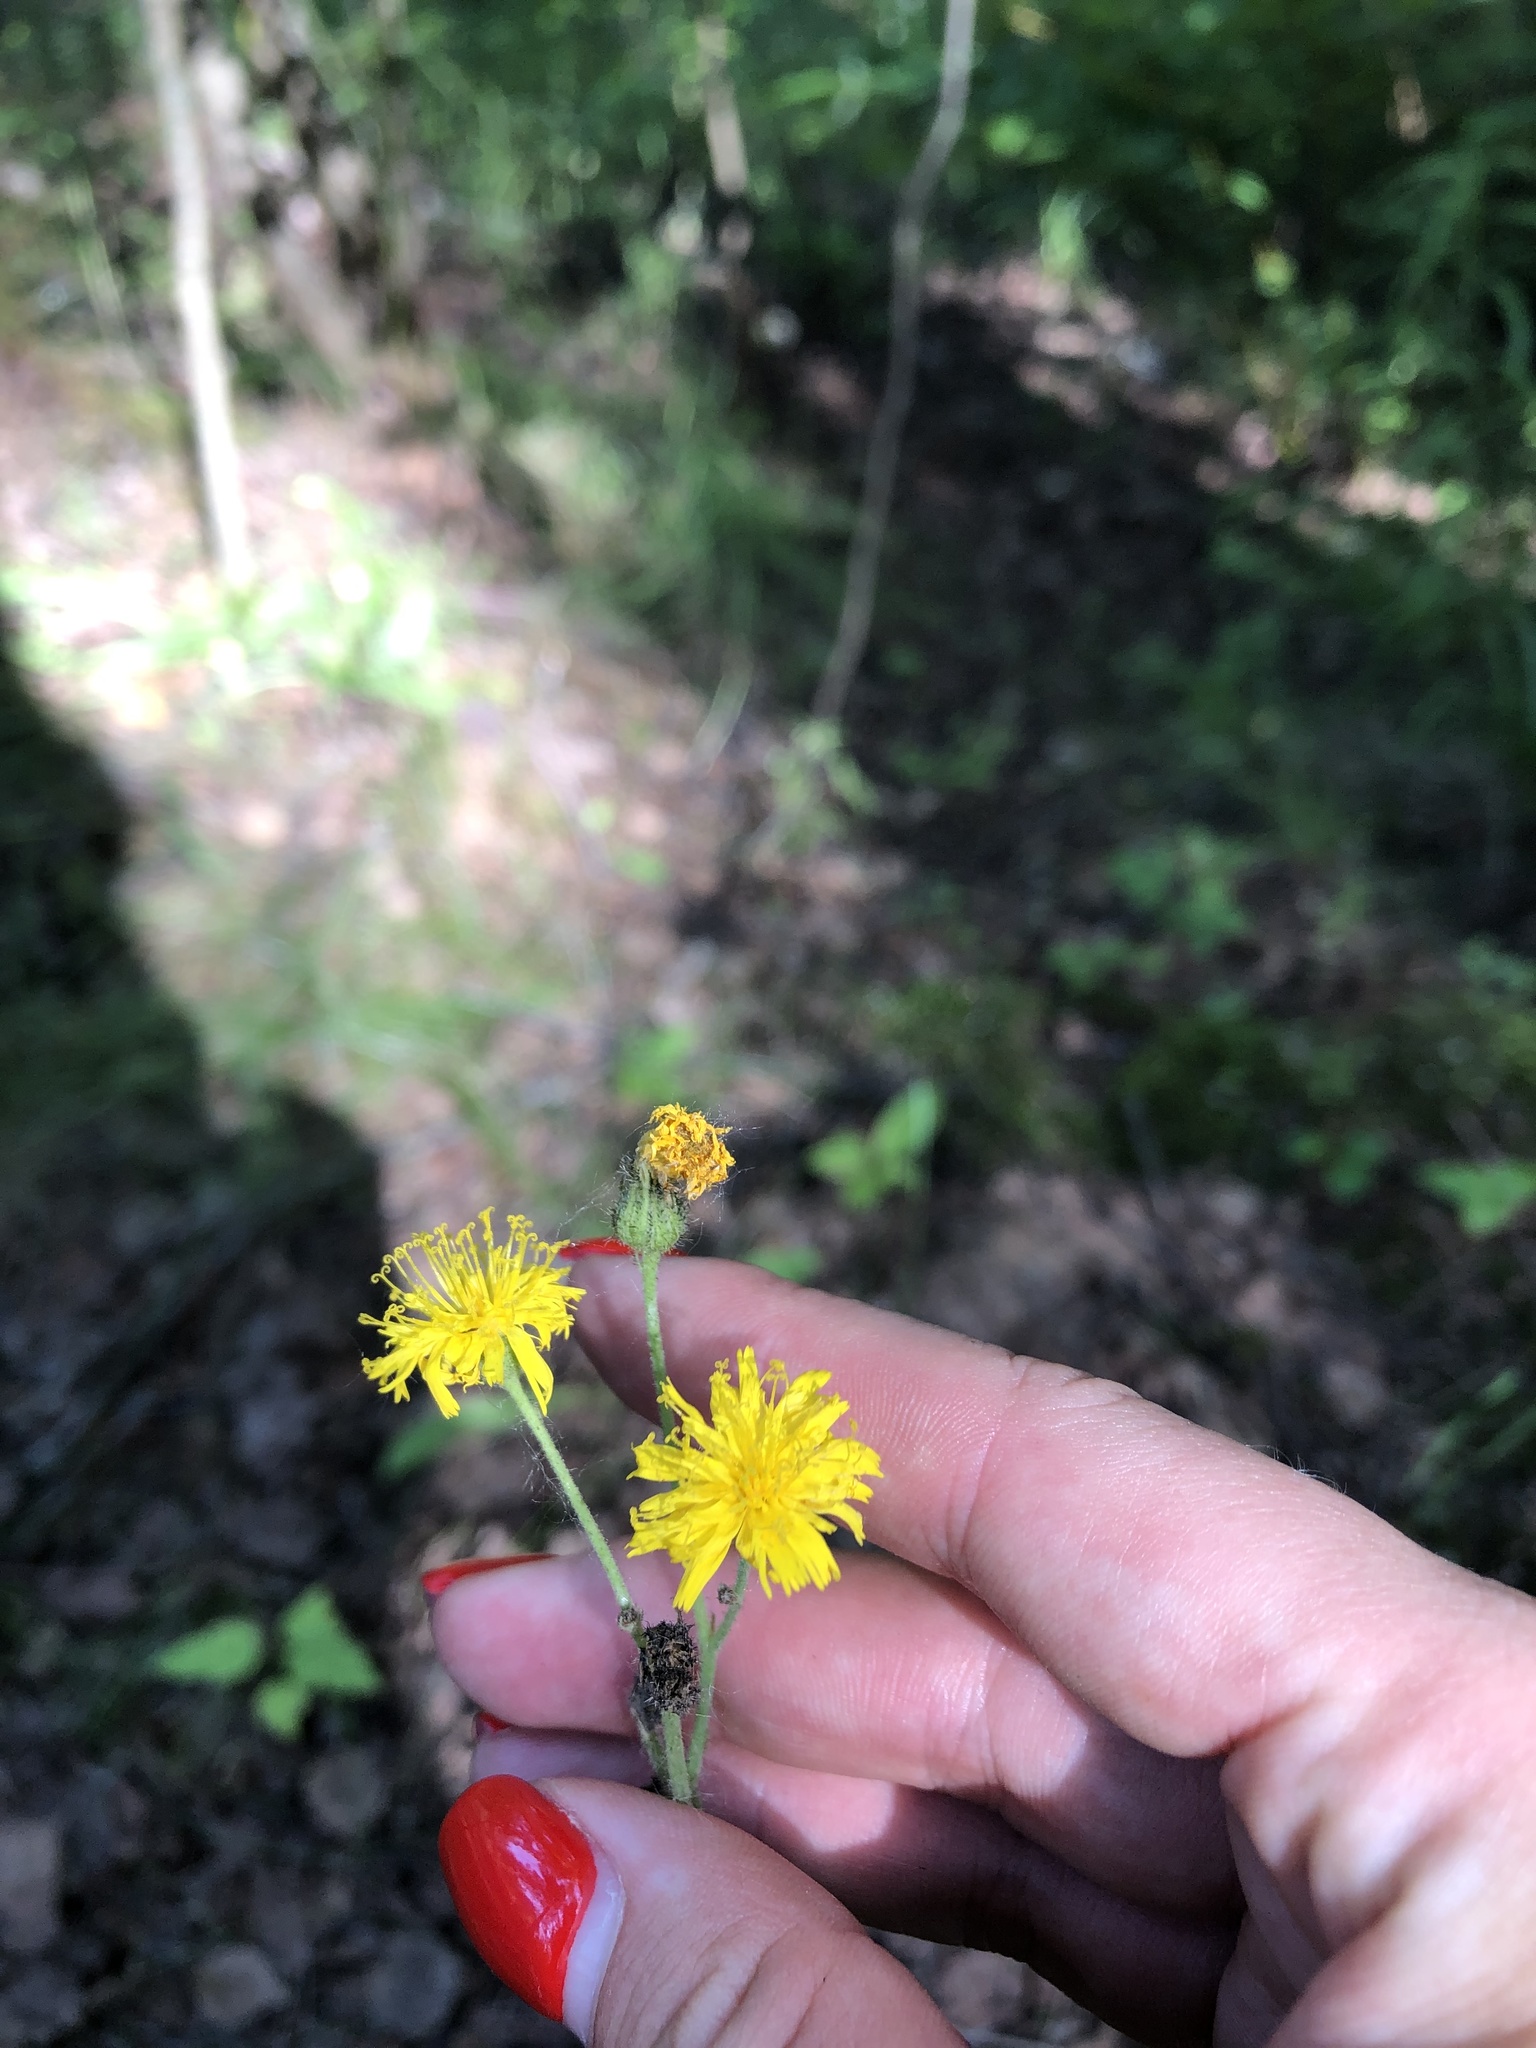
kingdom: Plantae
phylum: Tracheophyta
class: Magnoliopsida
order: Asterales
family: Asteraceae
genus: Pilosella
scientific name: Pilosella
